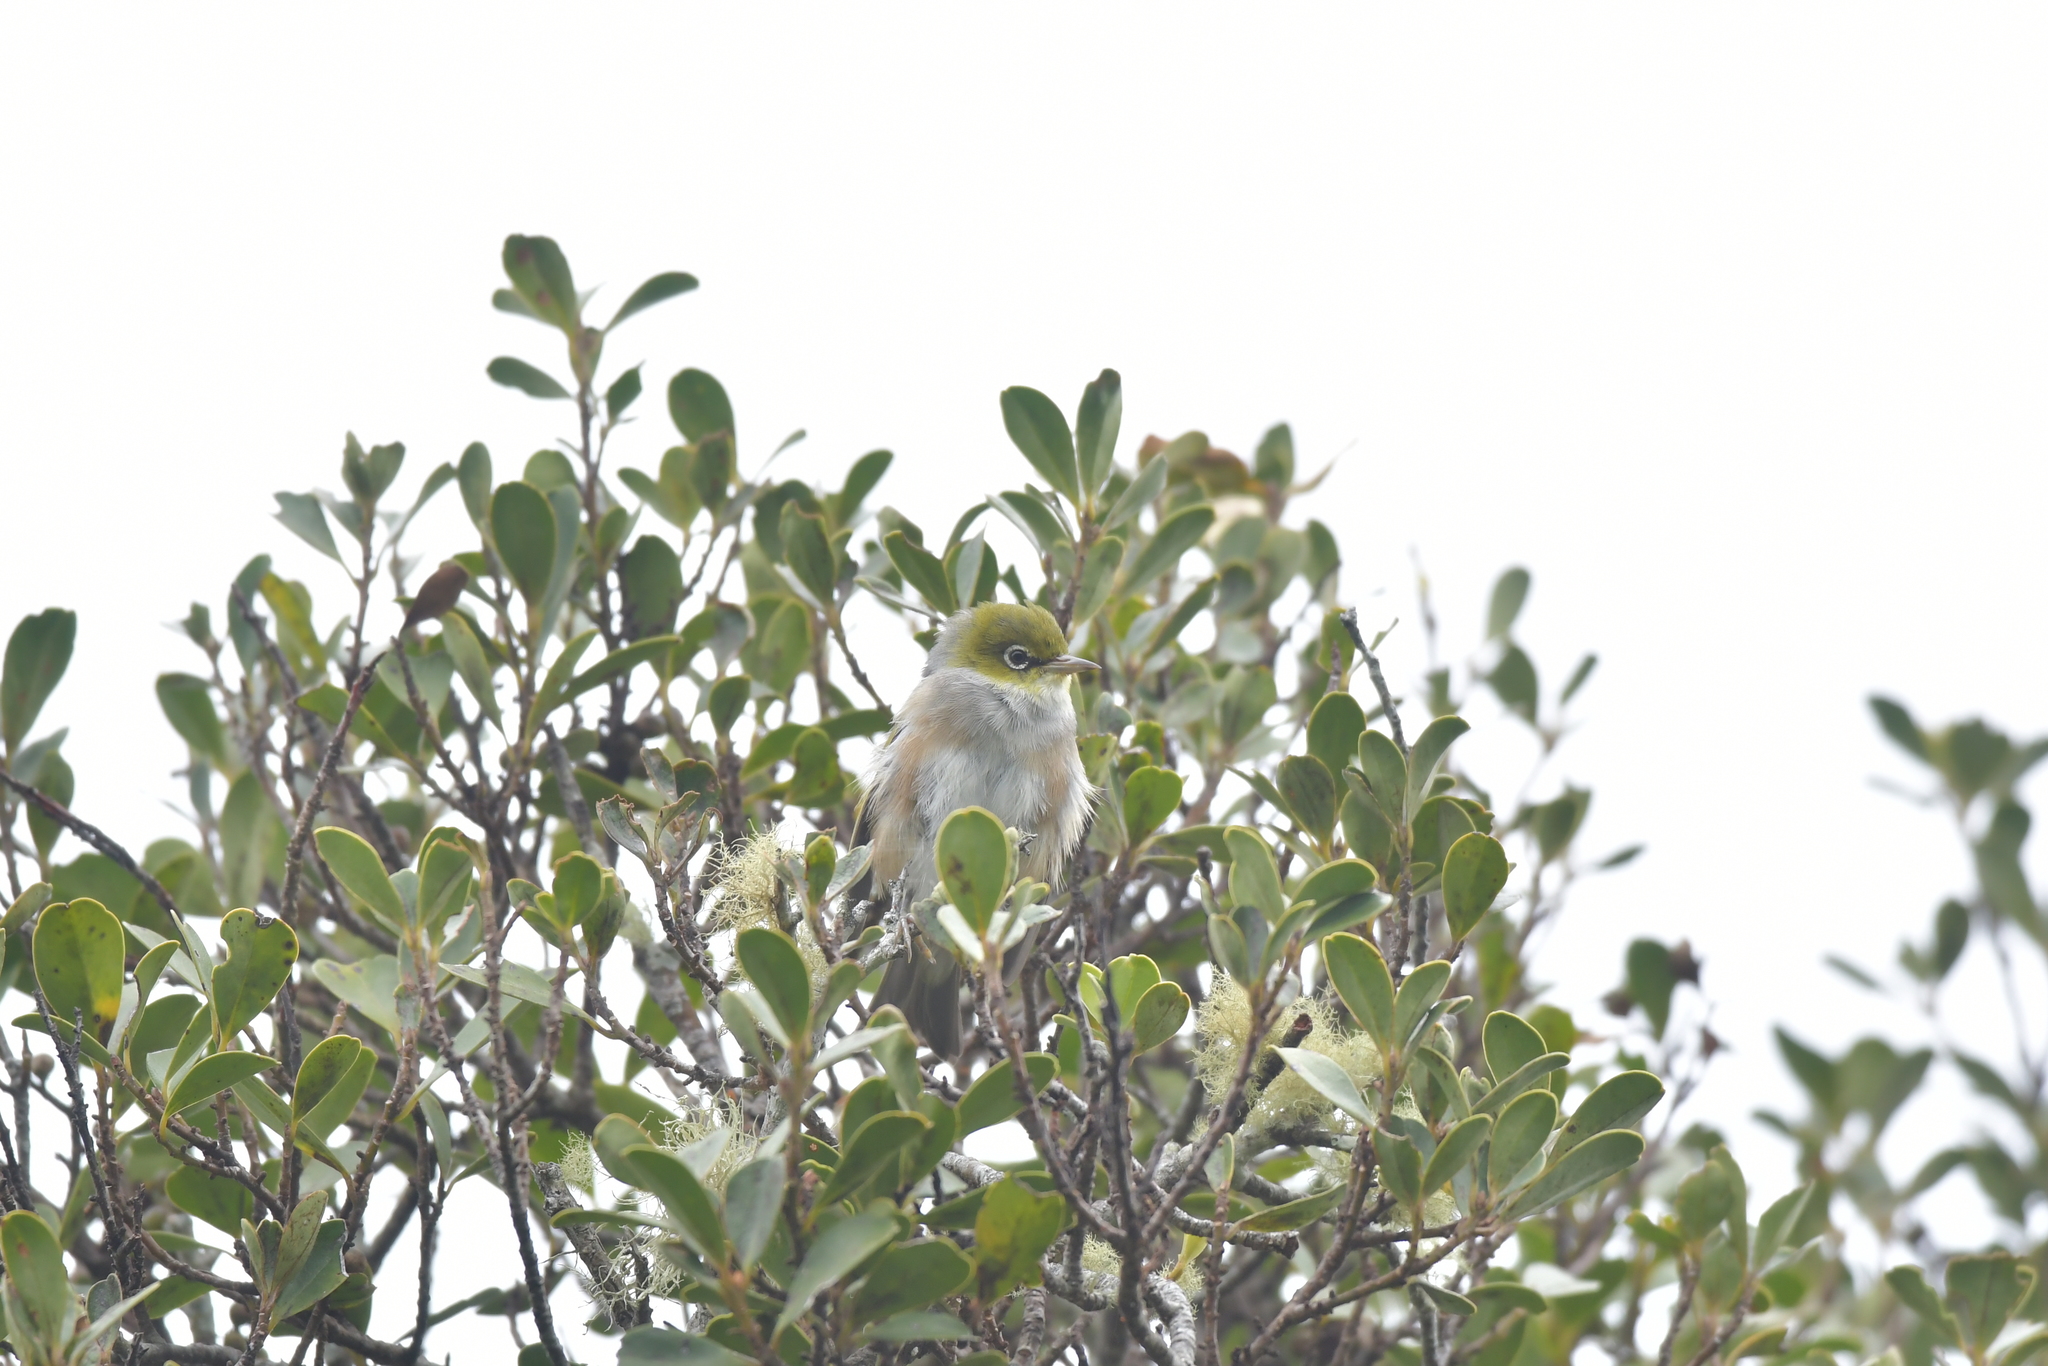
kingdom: Animalia
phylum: Chordata
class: Aves
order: Passeriformes
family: Zosteropidae
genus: Zosterops
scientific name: Zosterops lateralis
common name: Silvereye
